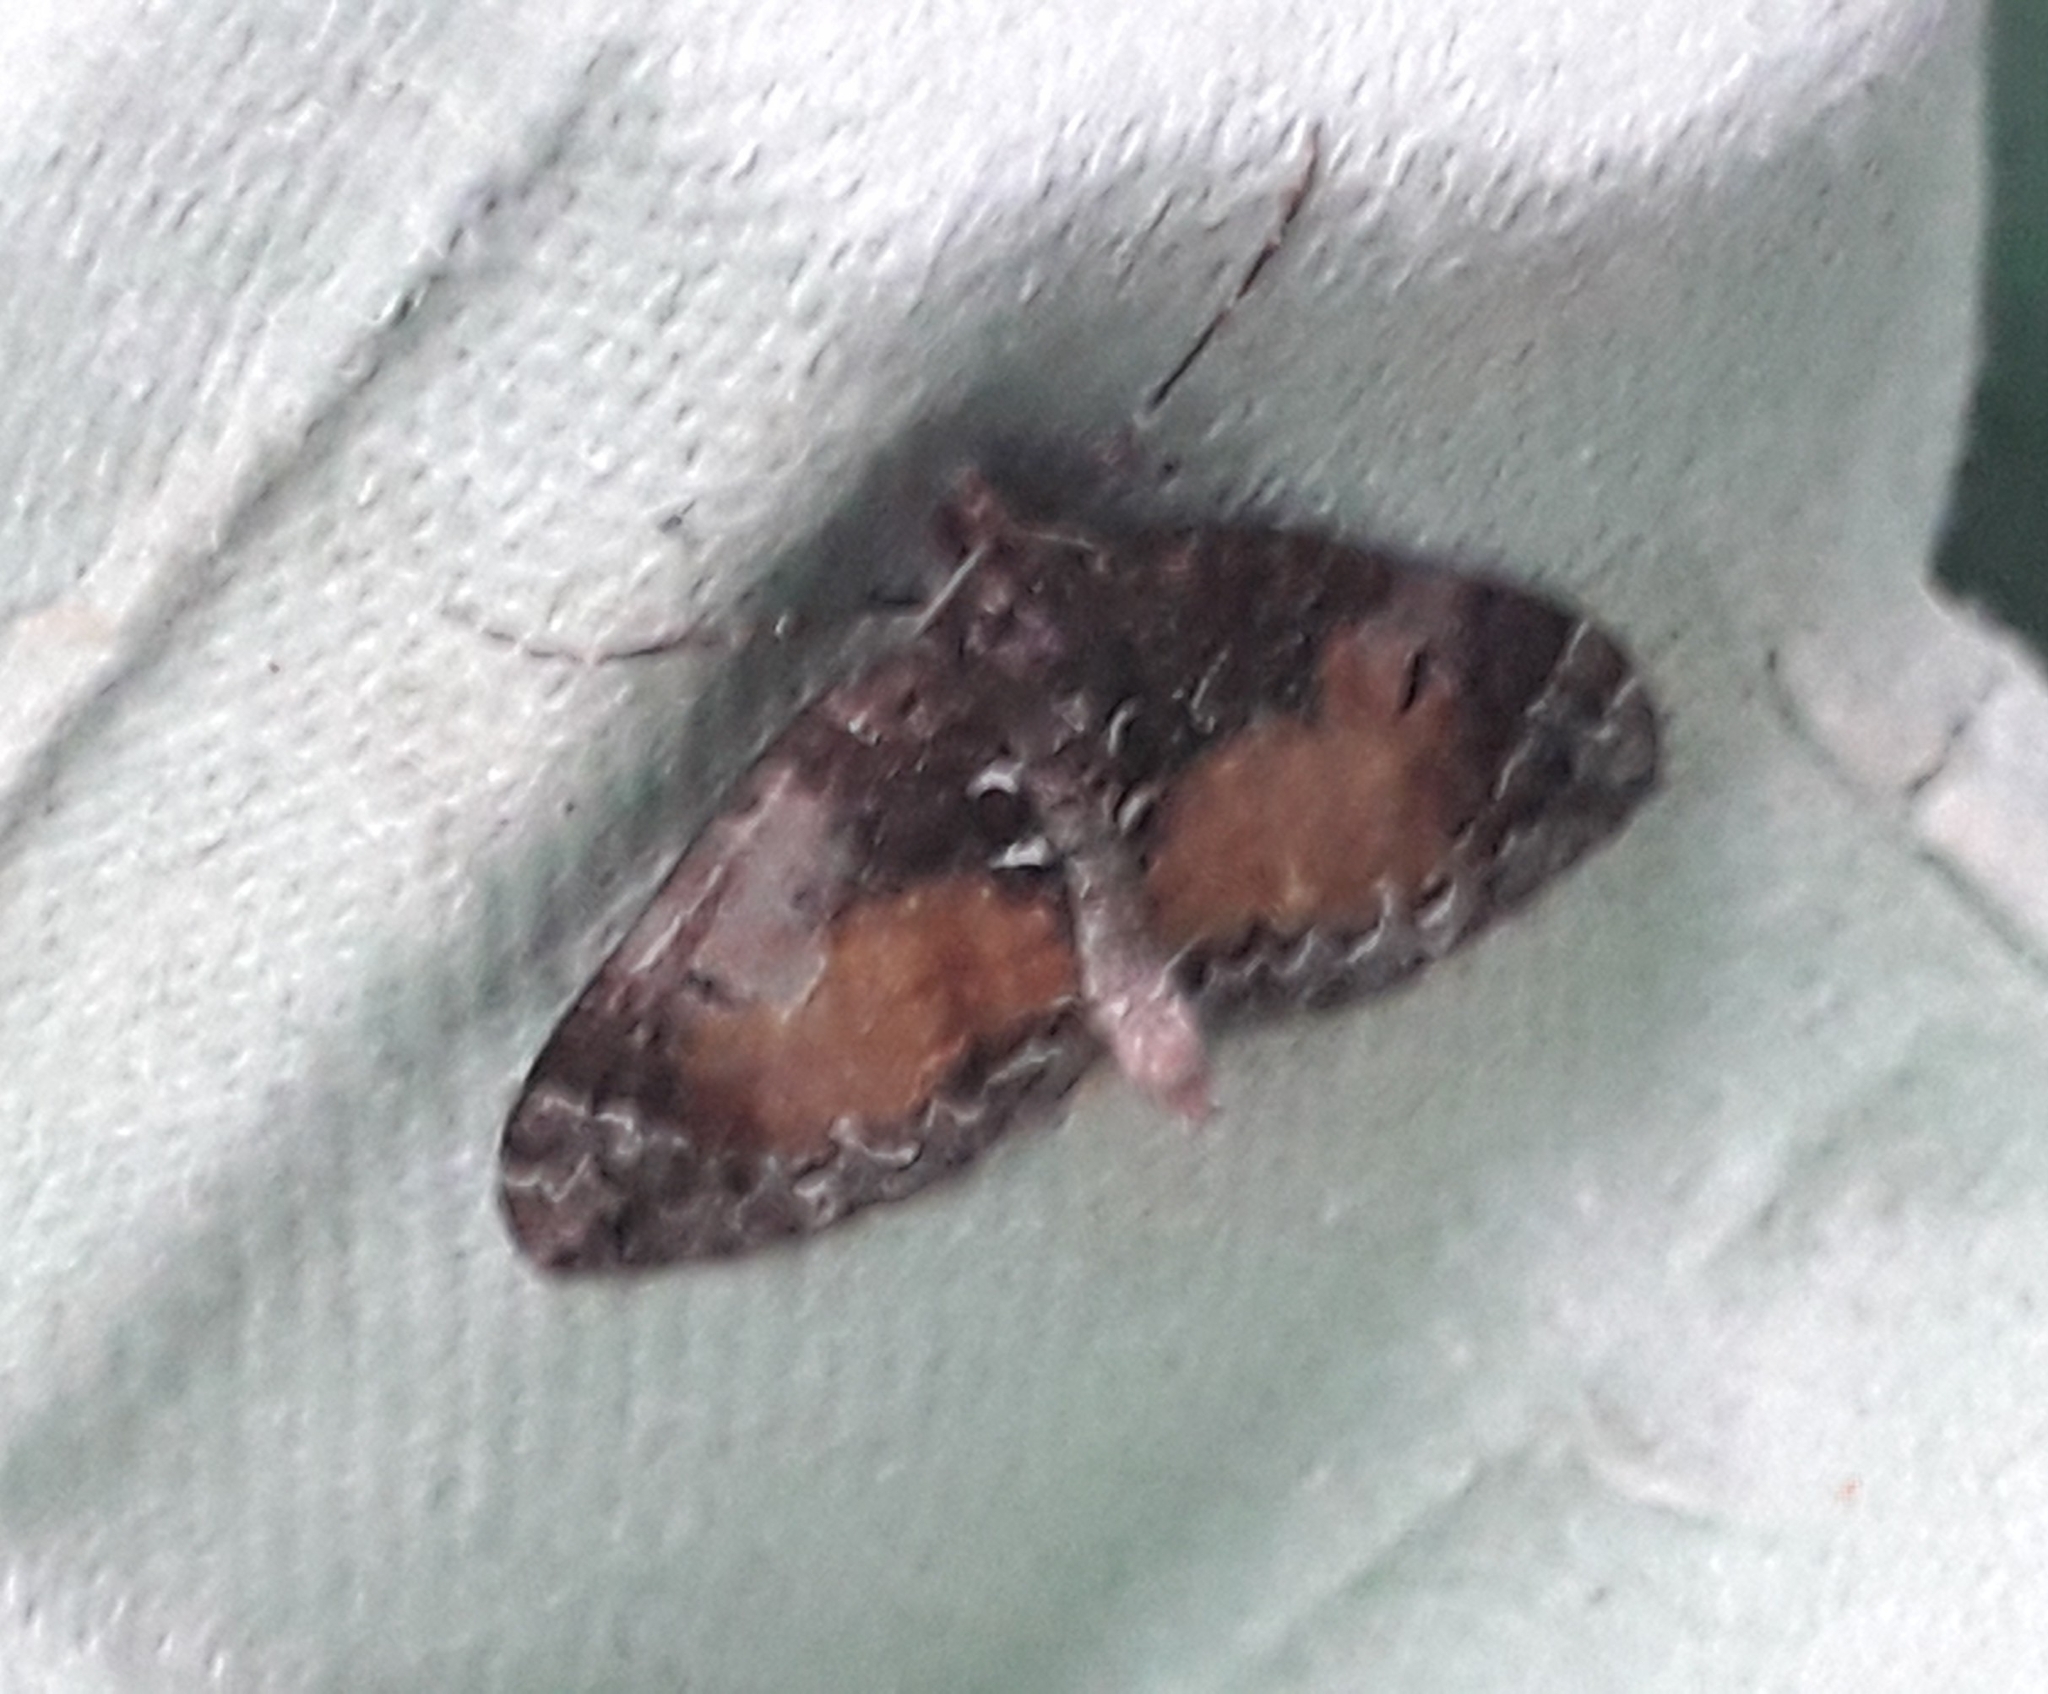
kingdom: Animalia
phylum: Arthropoda
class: Insecta
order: Lepidoptera
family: Geometridae
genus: Dysstroma
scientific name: Dysstroma truncata
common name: Common marbled carpet
